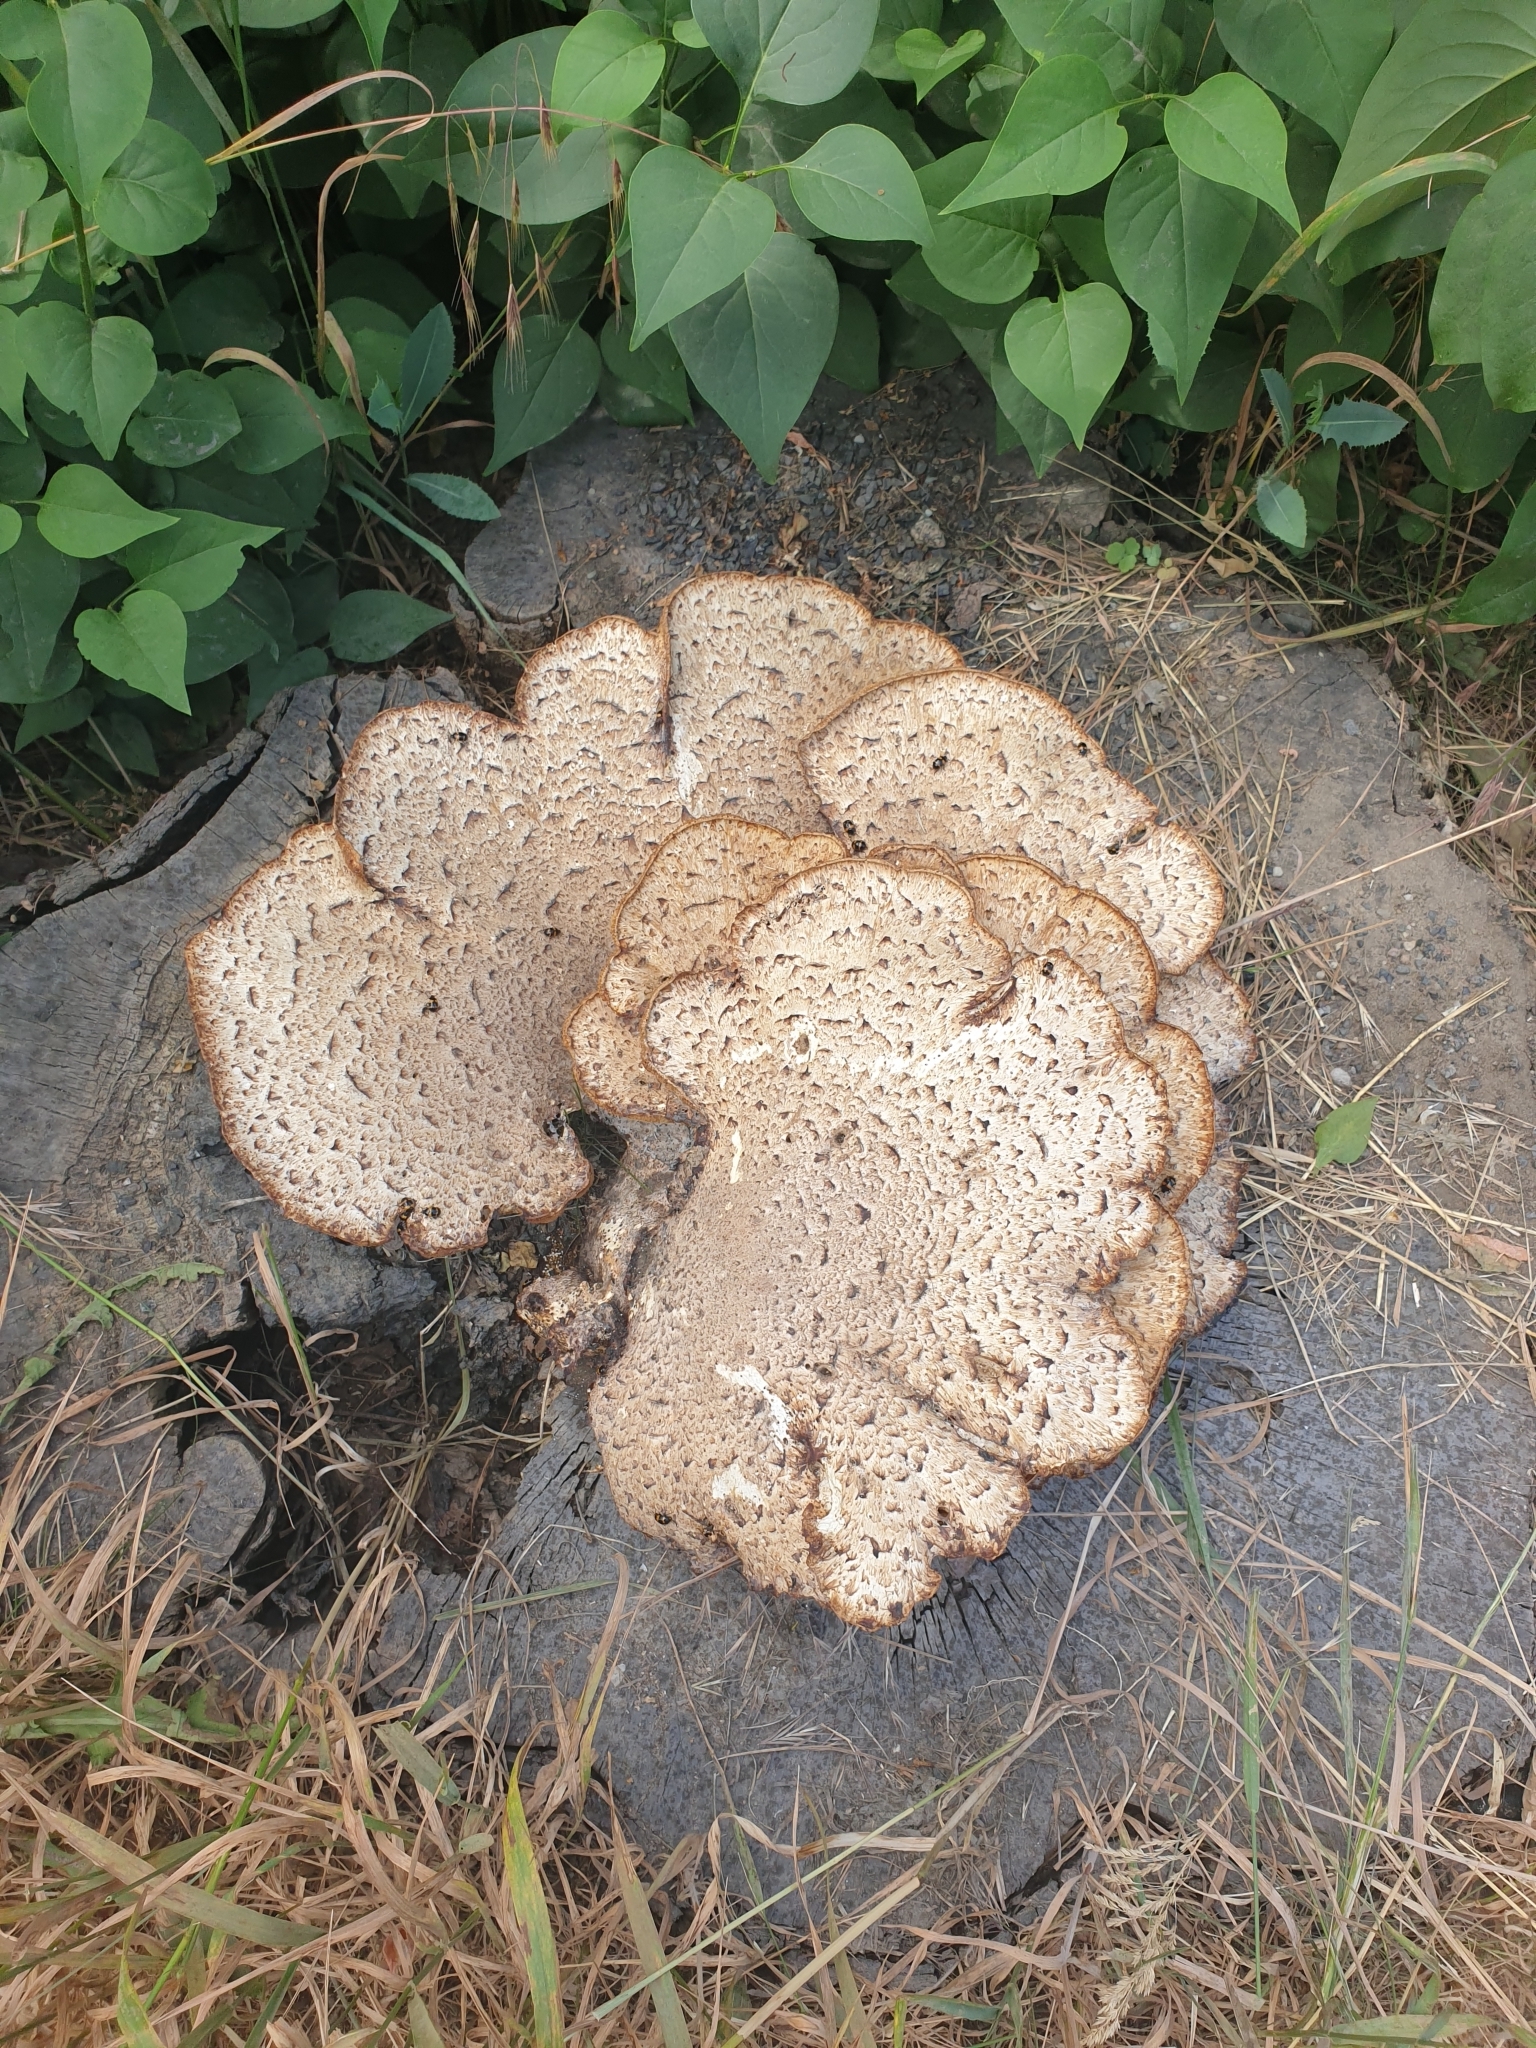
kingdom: Fungi
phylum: Basidiomycota
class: Agaricomycetes
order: Polyporales
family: Polyporaceae
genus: Cerioporus
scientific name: Cerioporus squamosus
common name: Dryad's saddle
